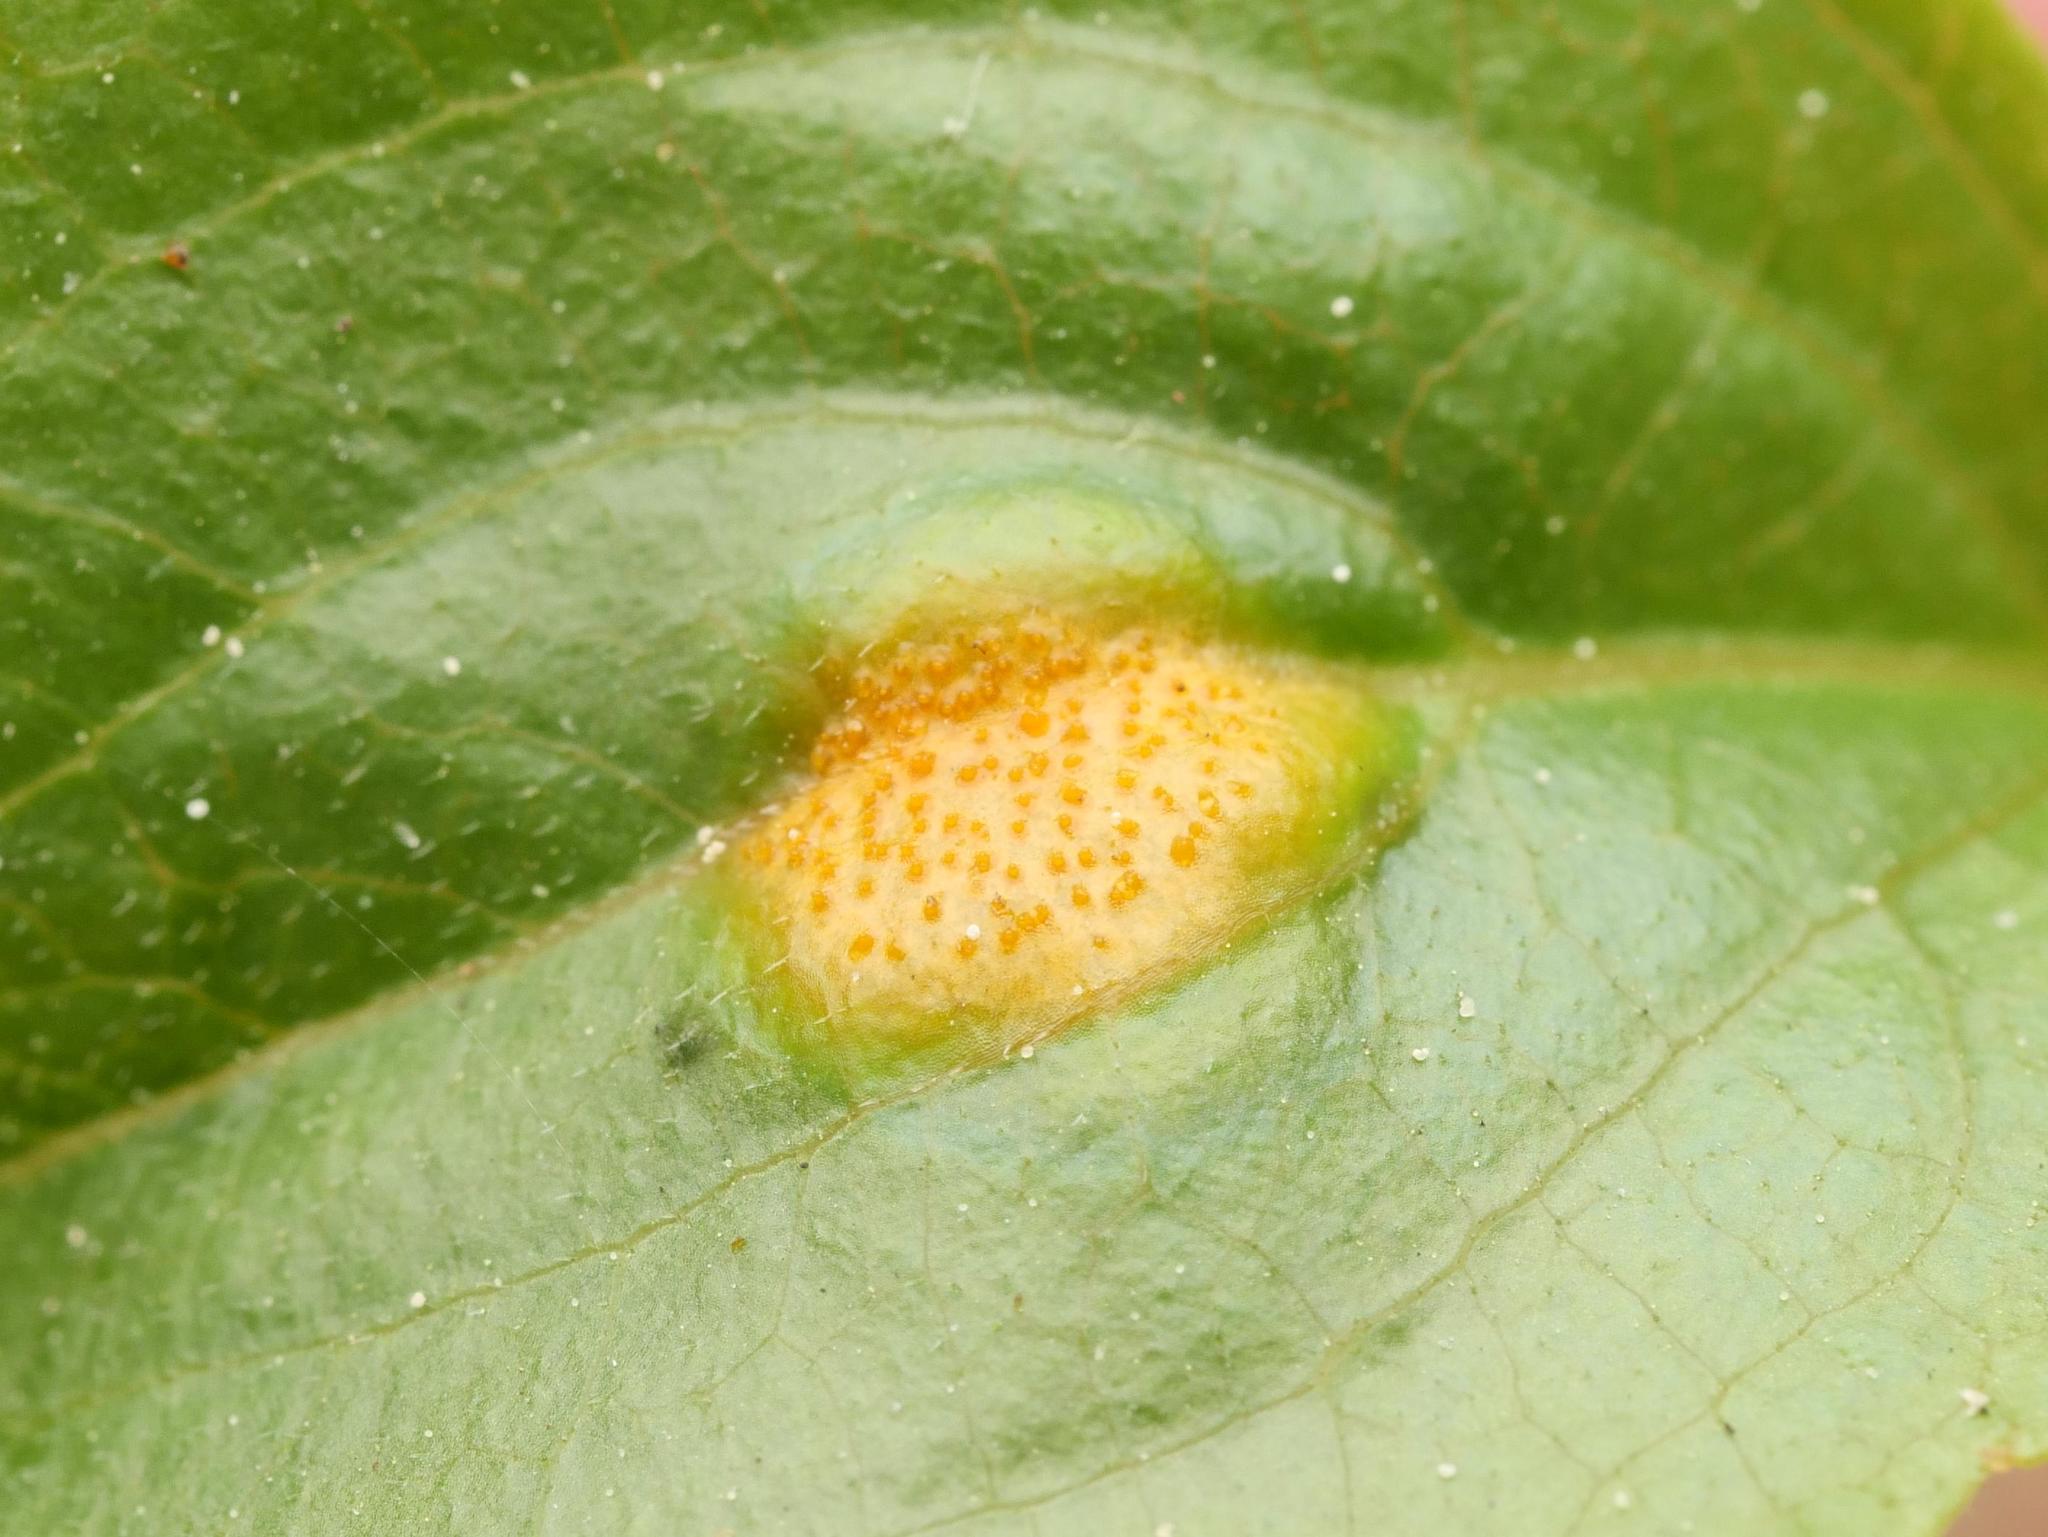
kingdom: Fungi
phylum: Basidiomycota
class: Pucciniomycetes
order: Pucciniales
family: Pucciniaceae
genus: Puccinia
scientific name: Puccinia coronata
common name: Crown rust
